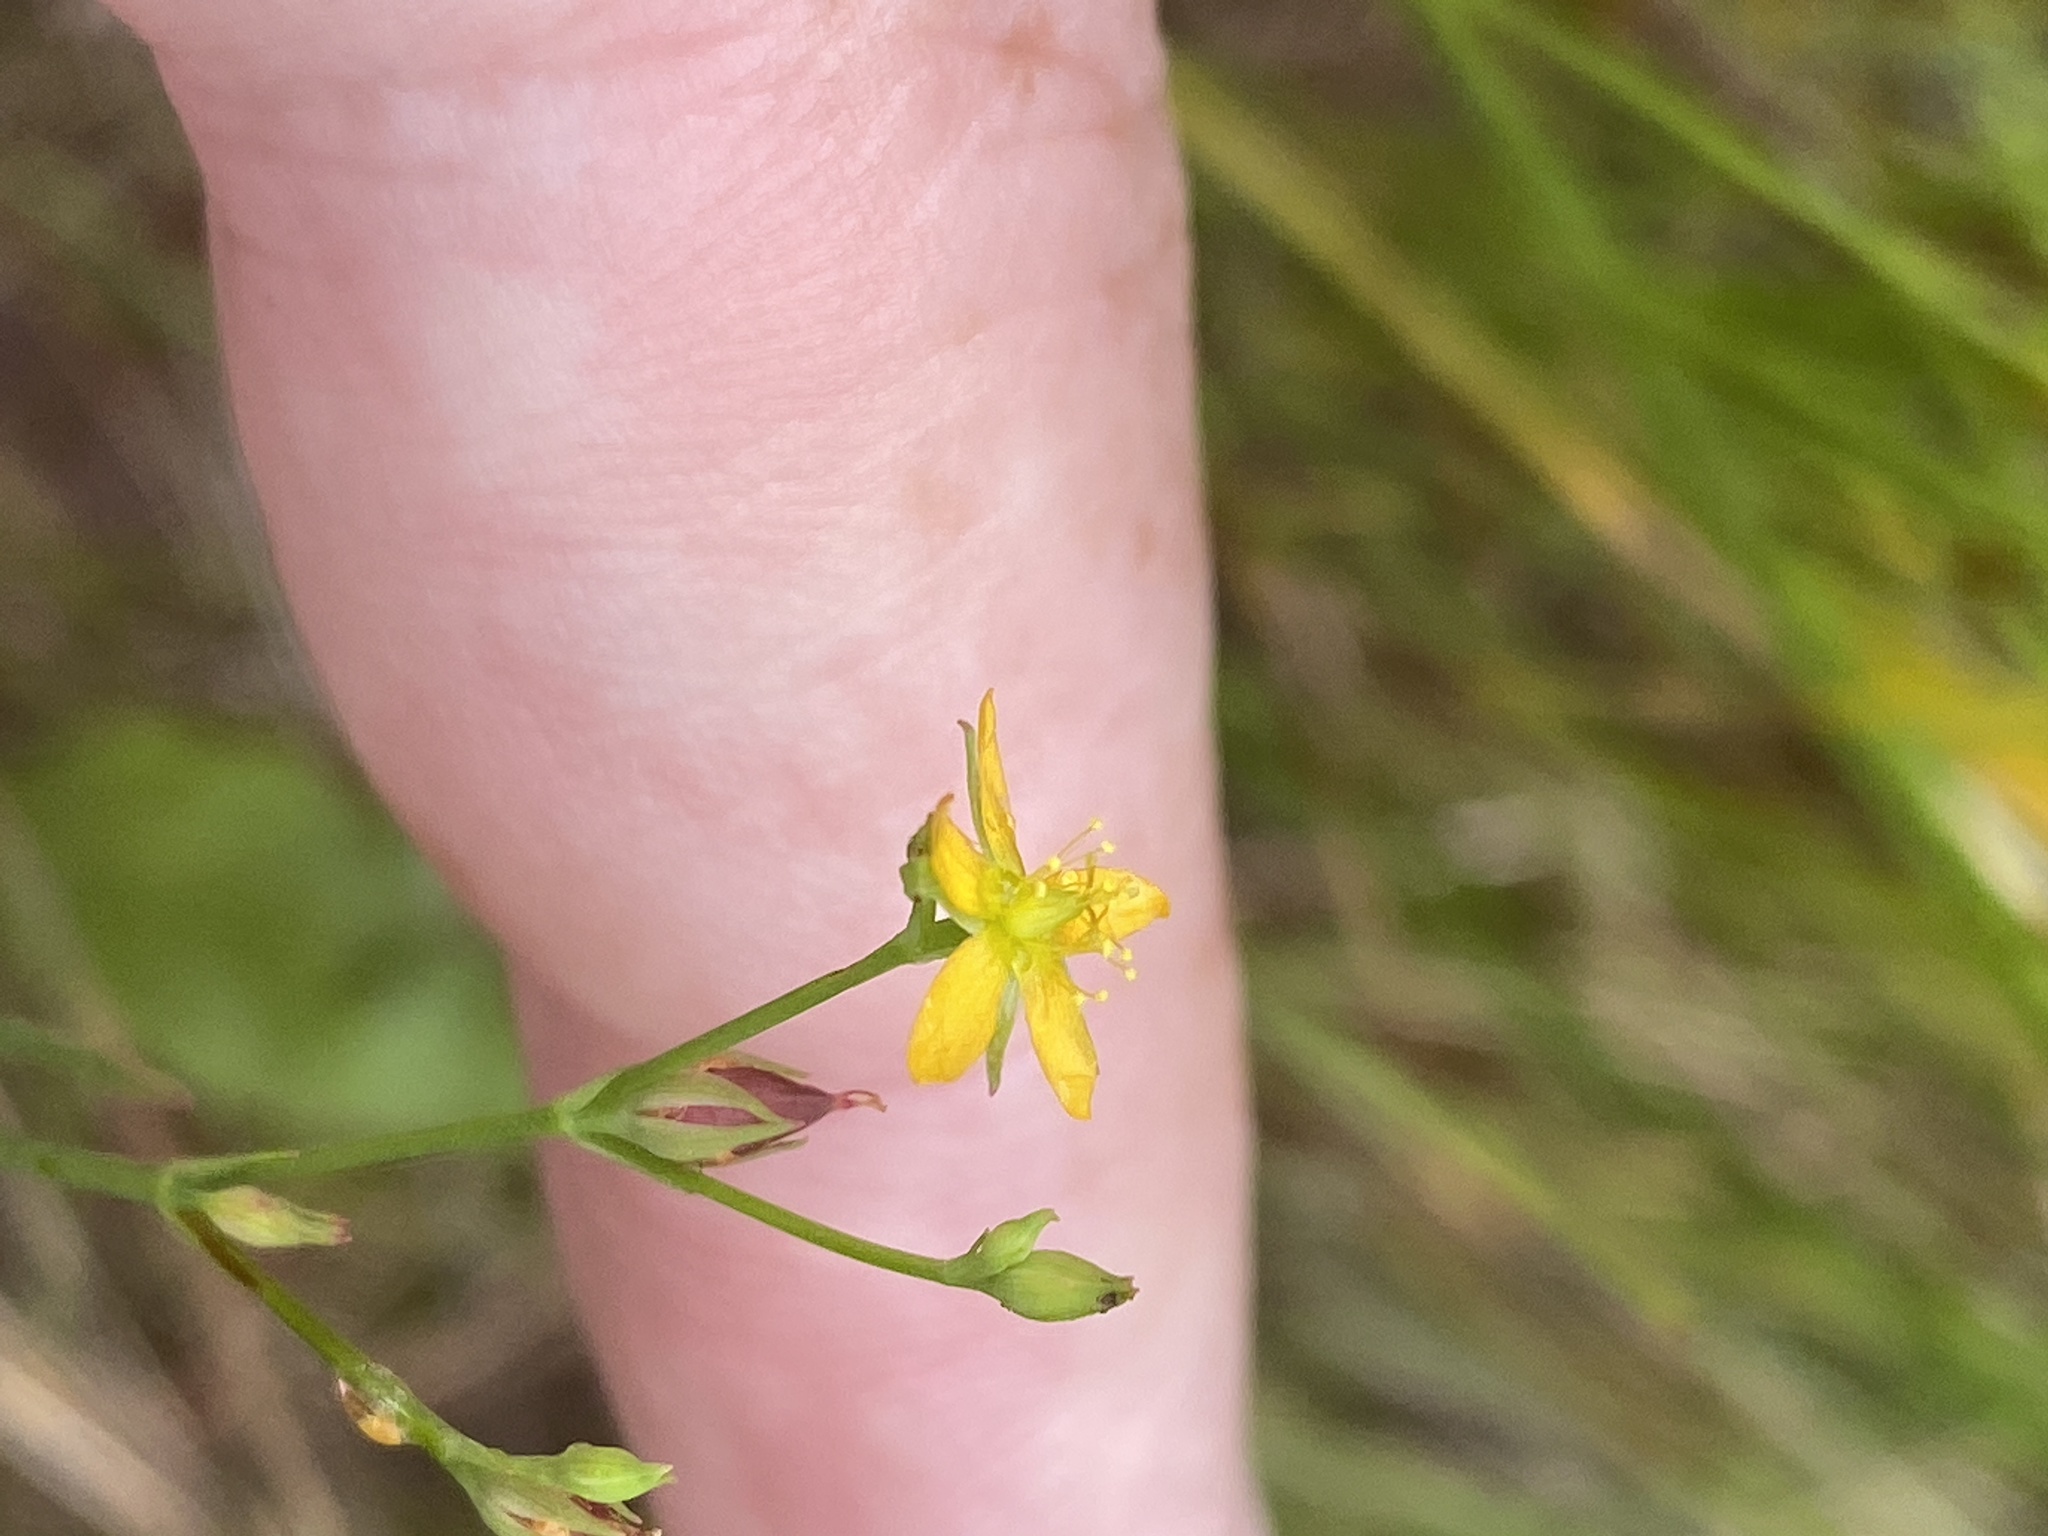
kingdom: Plantae
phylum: Tracheophyta
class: Magnoliopsida
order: Malpighiales
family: Hypericaceae
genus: Hypericum
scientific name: Hypericum canadense
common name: Irish st. john's-wort
